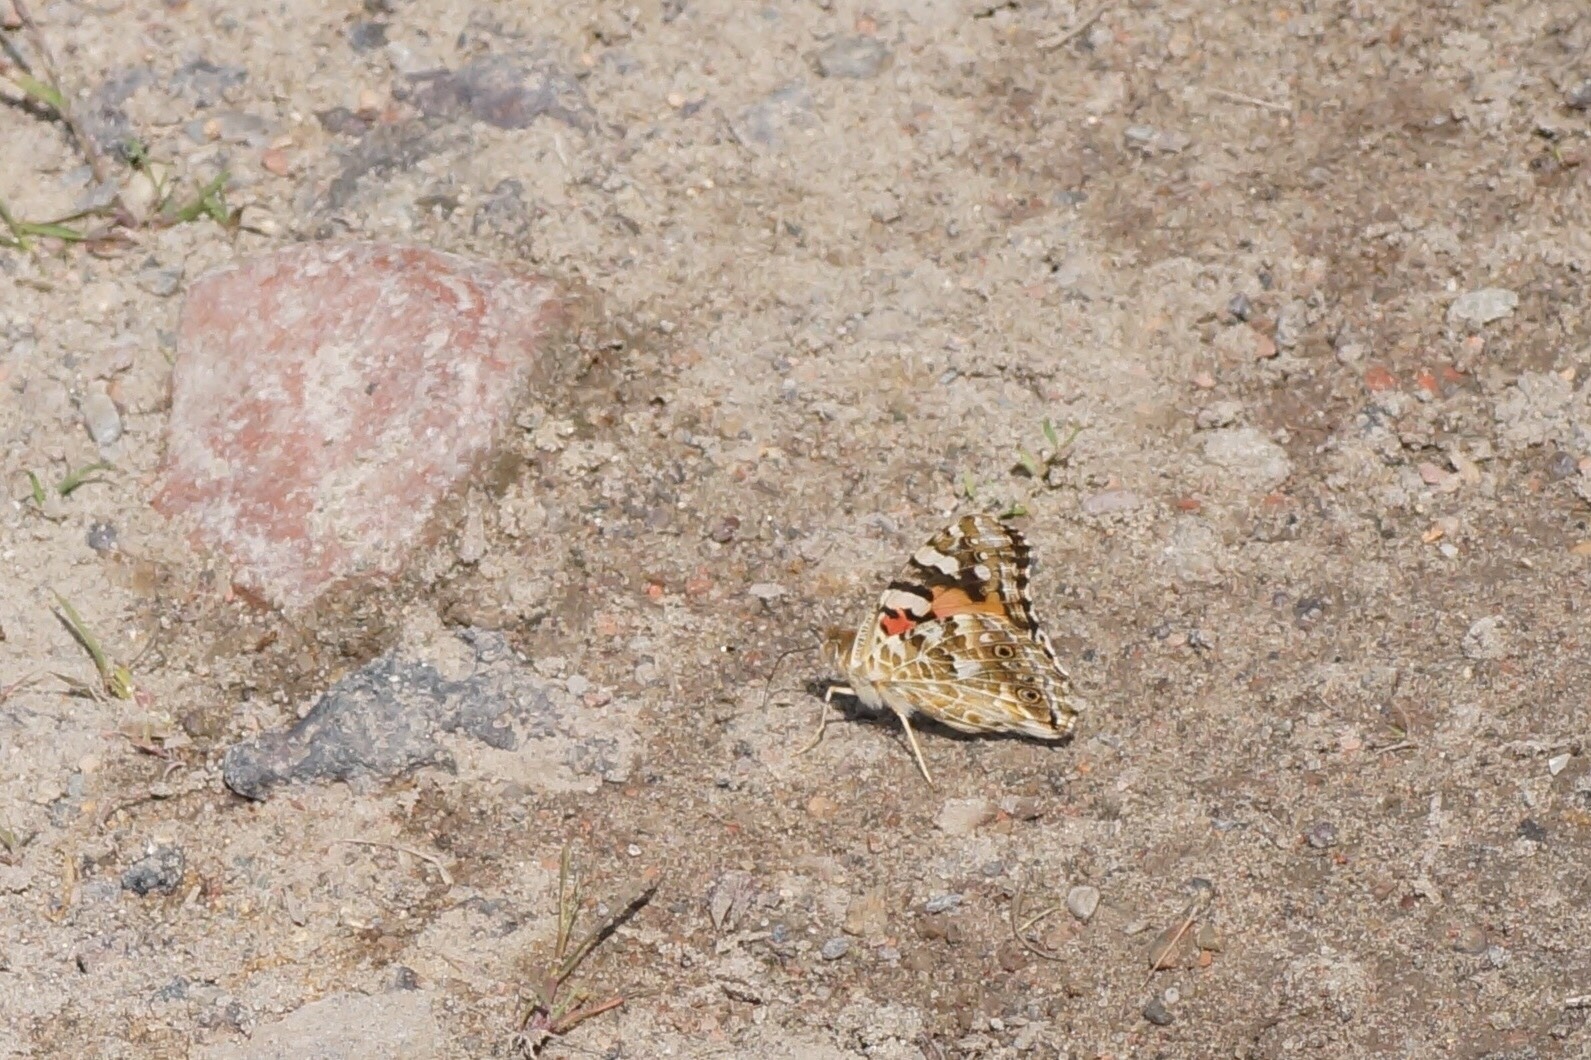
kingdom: Animalia
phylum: Arthropoda
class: Insecta
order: Lepidoptera
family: Nymphalidae
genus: Vanessa
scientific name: Vanessa cardui
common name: Painted lady
